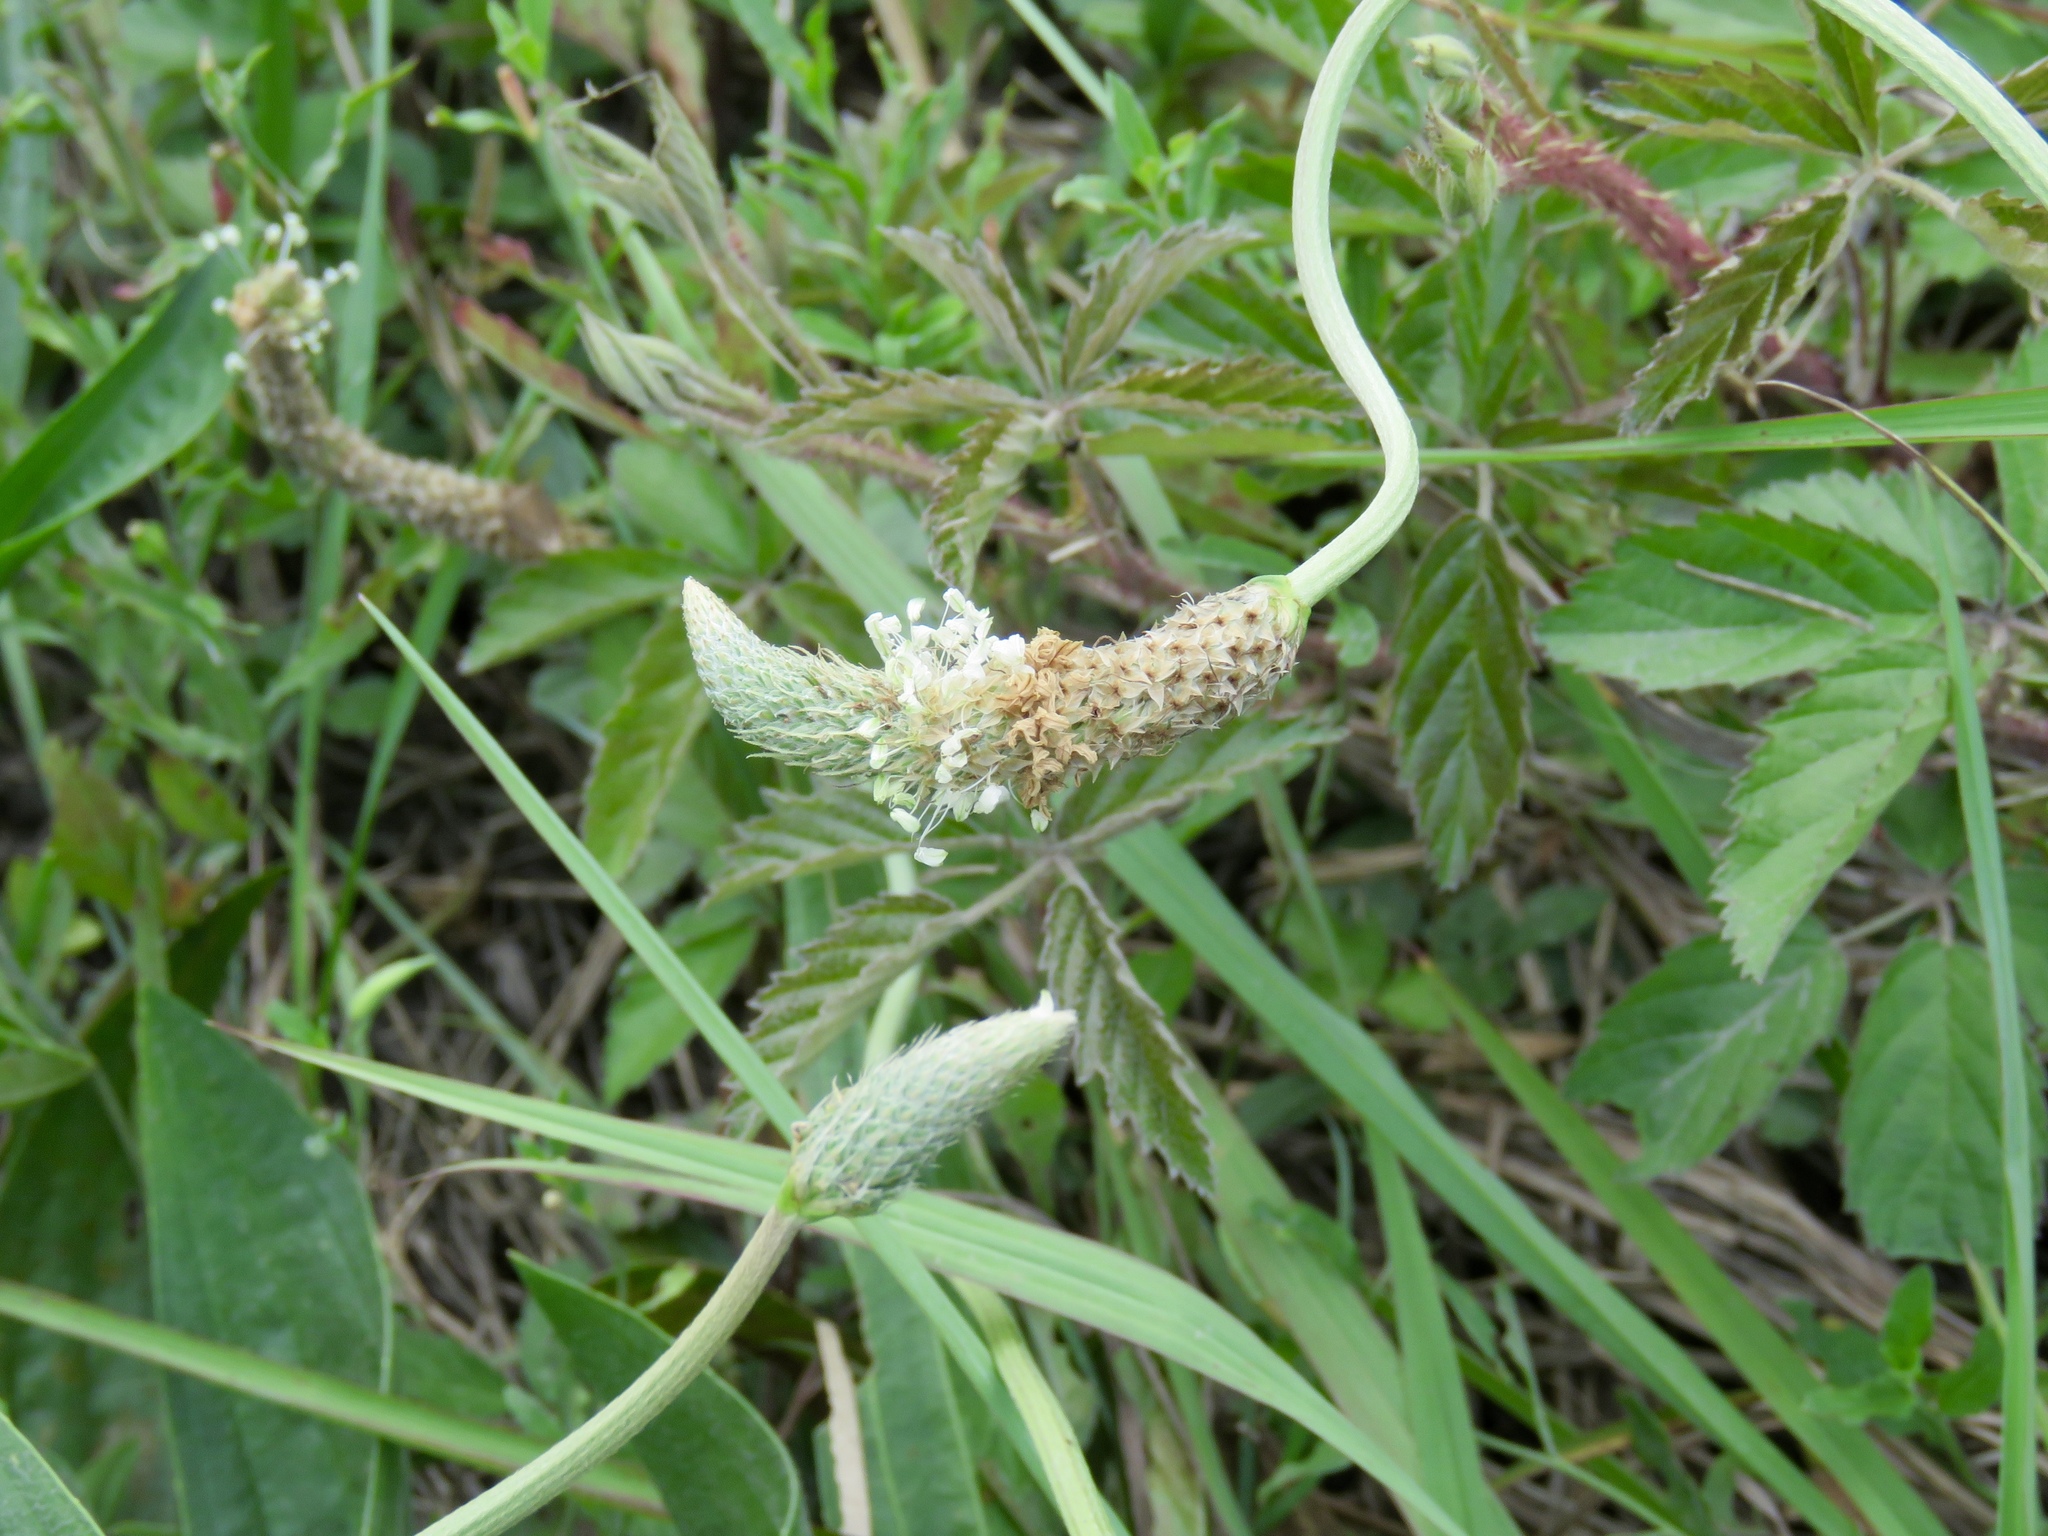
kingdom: Plantae
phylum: Tracheophyta
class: Magnoliopsida
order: Lamiales
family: Plantaginaceae
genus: Plantago
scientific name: Plantago lanceolata
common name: Ribwort plantain
